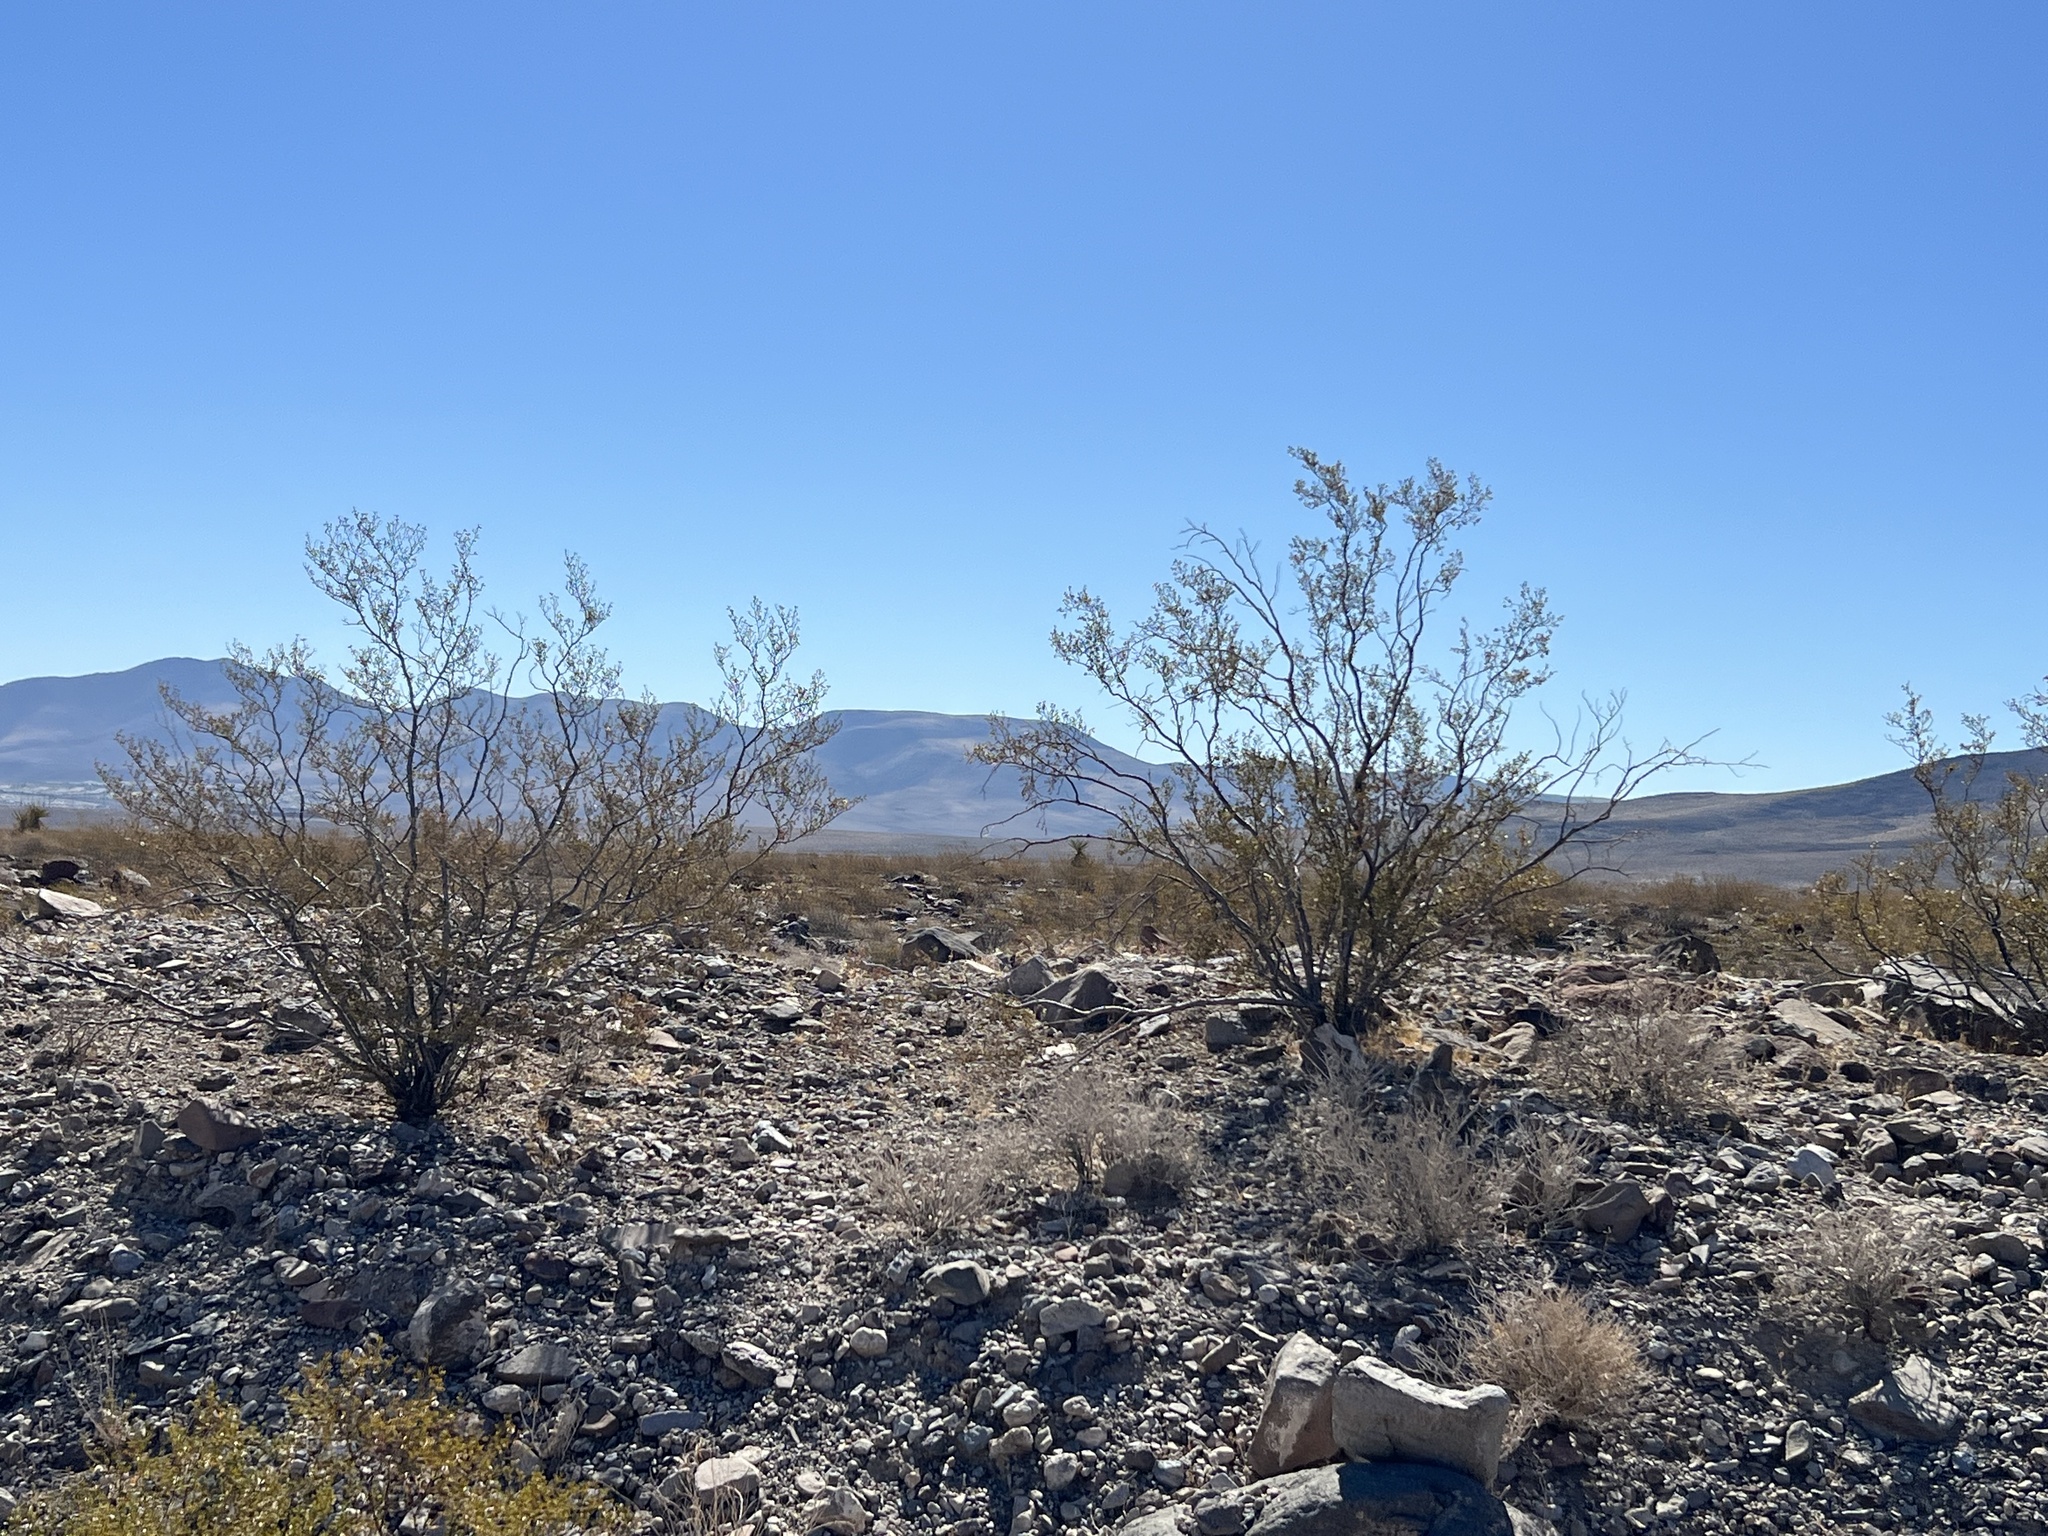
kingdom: Plantae
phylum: Tracheophyta
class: Magnoliopsida
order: Zygophyllales
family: Zygophyllaceae
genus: Larrea
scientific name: Larrea tridentata
